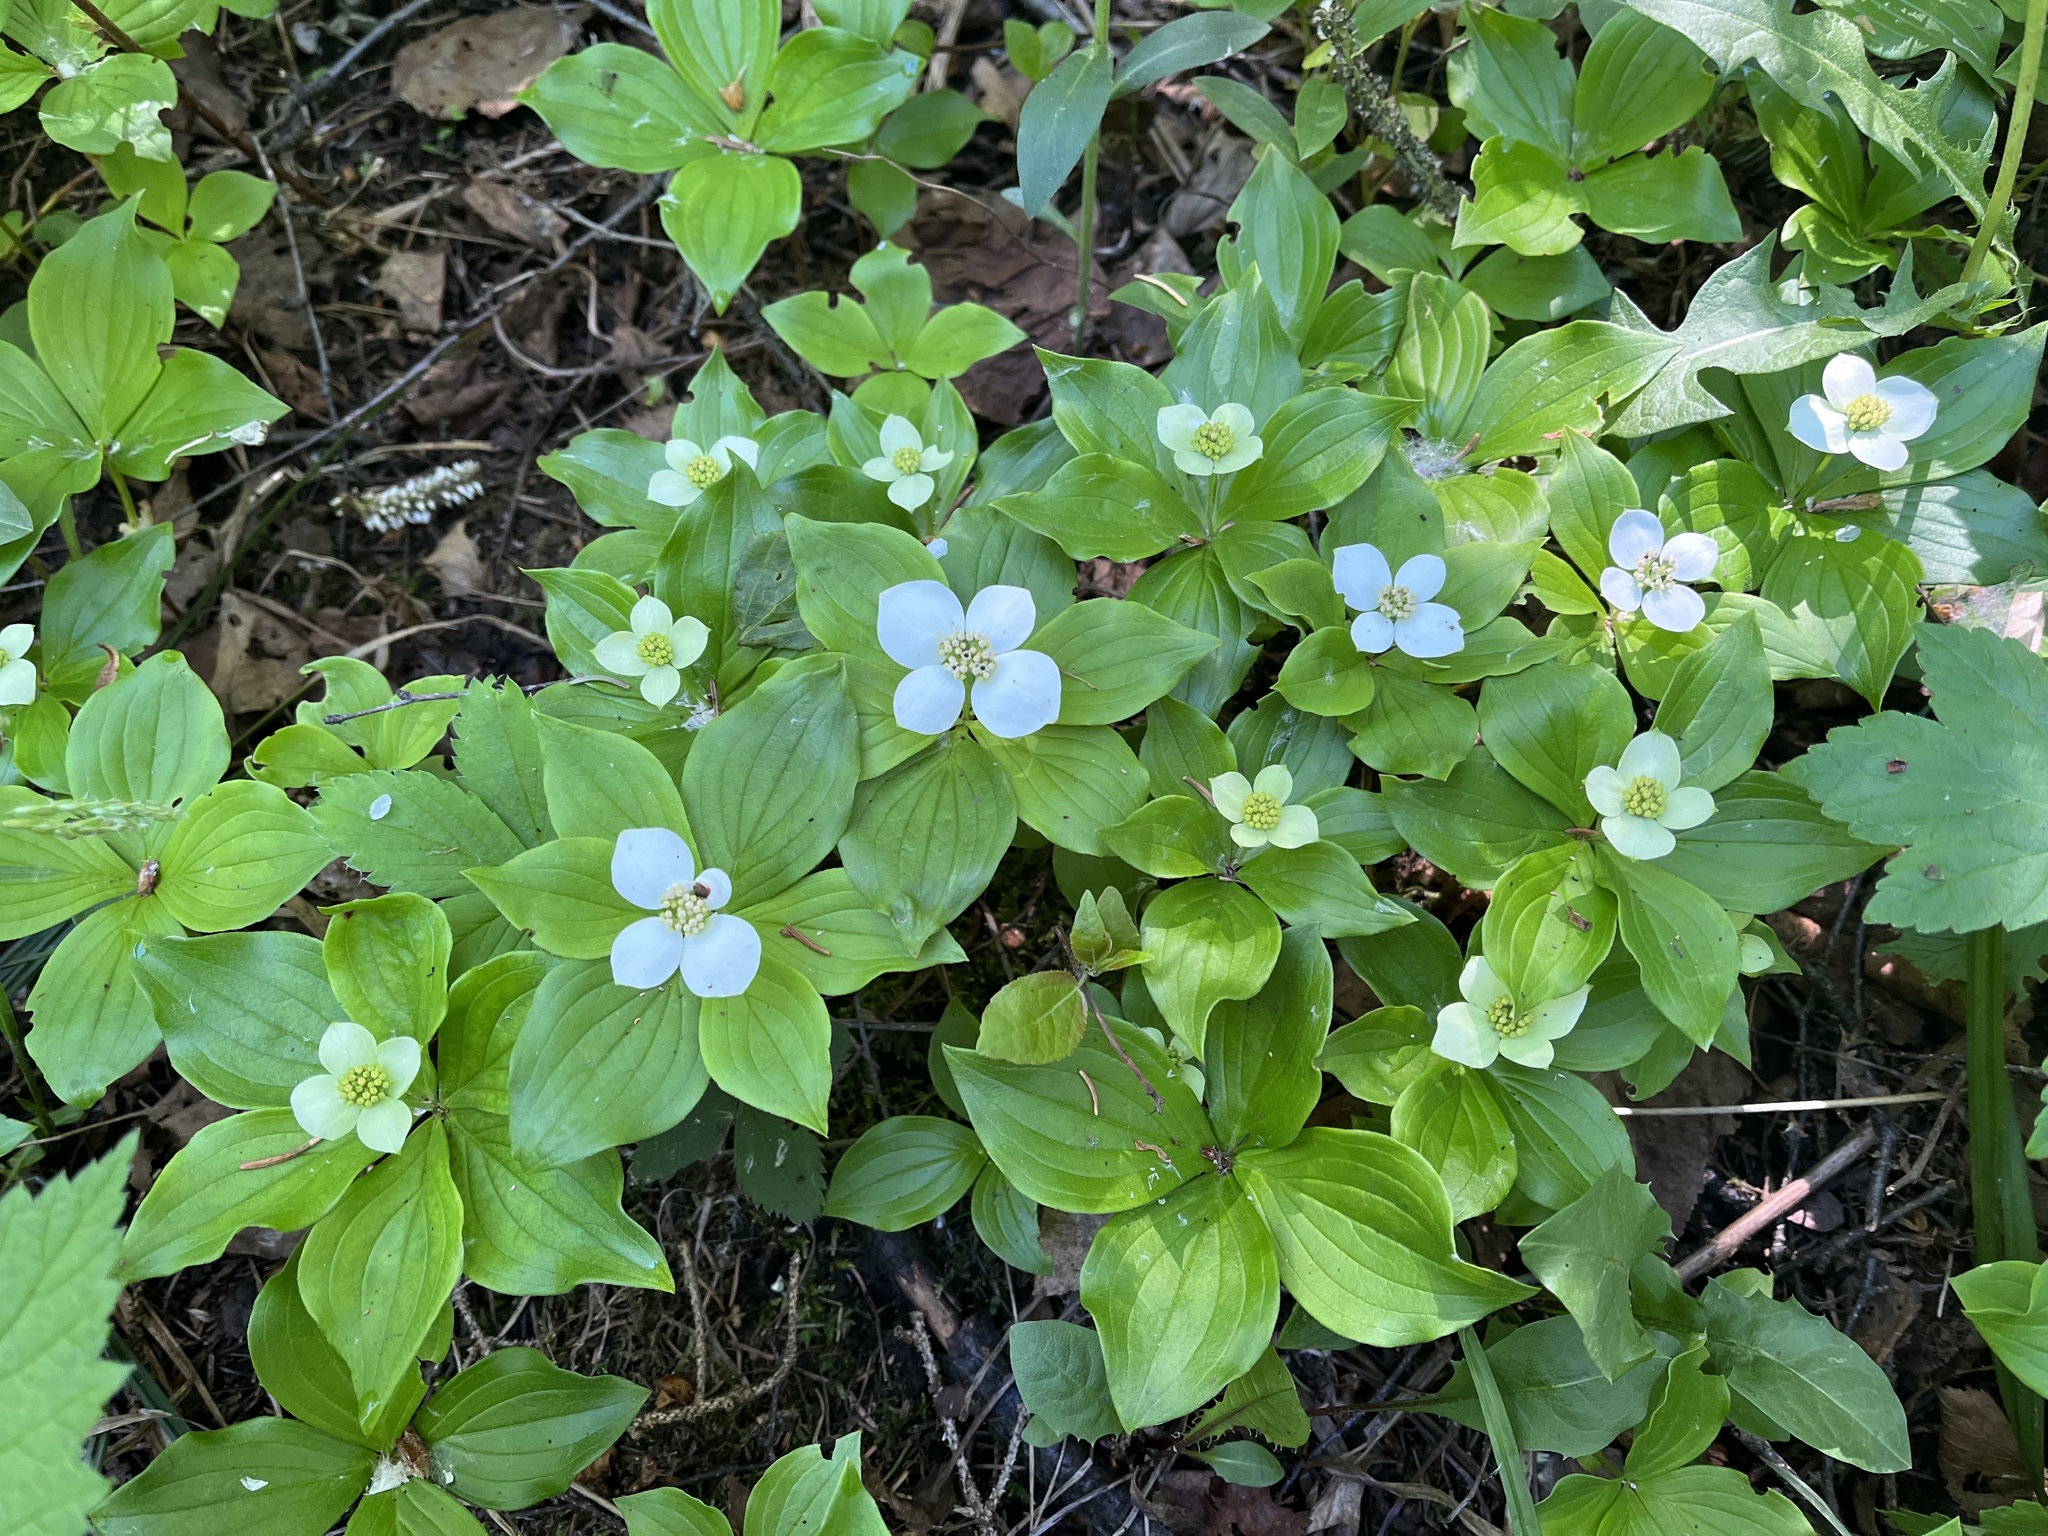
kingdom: Plantae
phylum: Tracheophyta
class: Magnoliopsida
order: Cornales
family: Cornaceae
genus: Cornus
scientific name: Cornus canadensis
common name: Creeping dogwood
